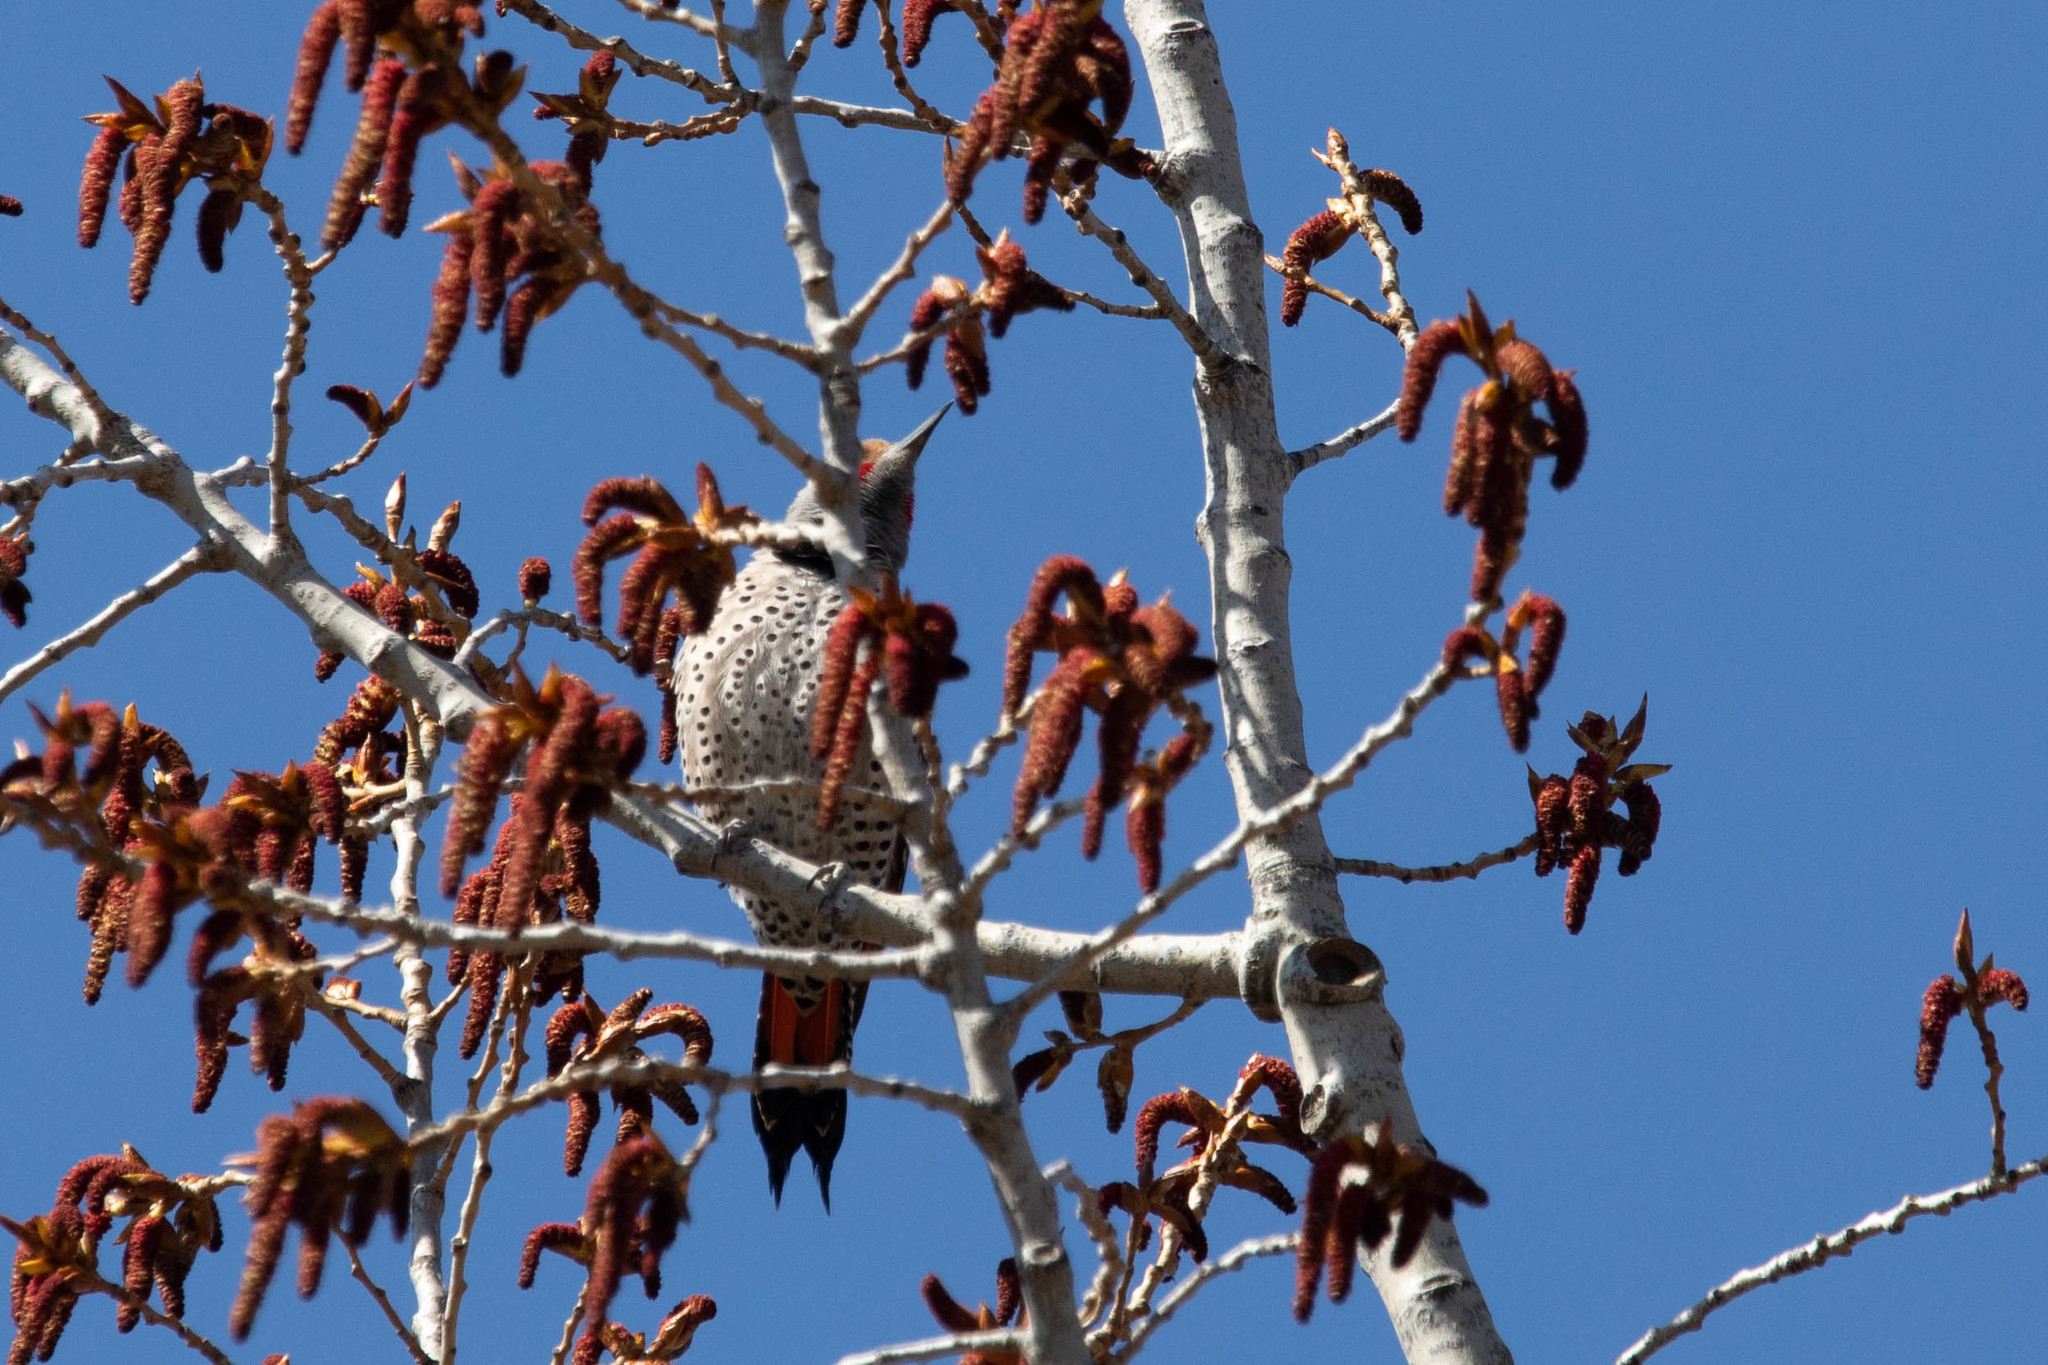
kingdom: Animalia
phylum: Chordata
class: Aves
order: Piciformes
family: Picidae
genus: Colaptes
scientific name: Colaptes auratus
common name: Northern flicker
